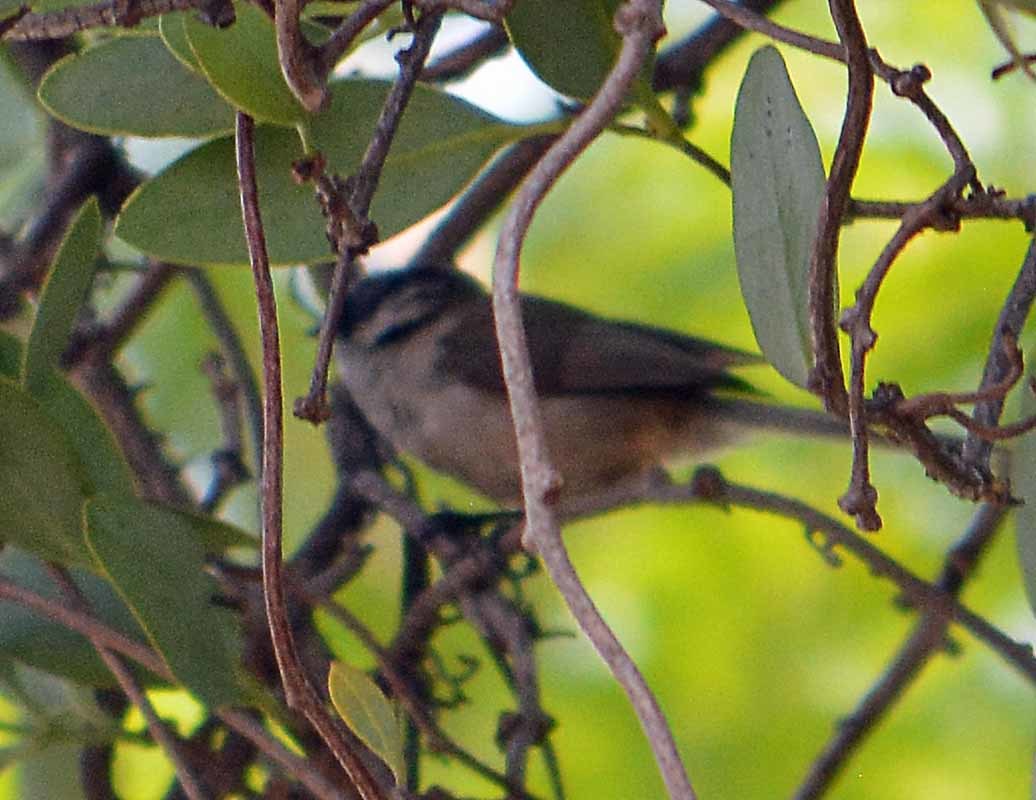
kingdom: Animalia
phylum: Chordata
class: Aves
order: Passeriformes
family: Aegithalidae
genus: Psaltriparus
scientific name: Psaltriparus minimus
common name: American bushtit
